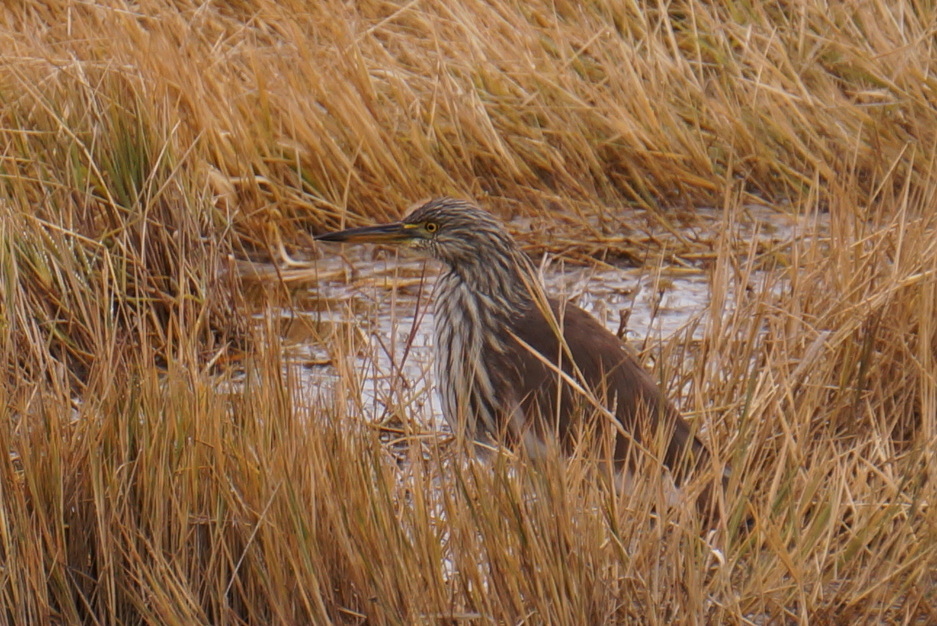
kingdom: Animalia
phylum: Chordata
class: Aves
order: Pelecaniformes
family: Ardeidae
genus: Ardeola
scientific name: Ardeola bacchus
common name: Chinese pond heron
